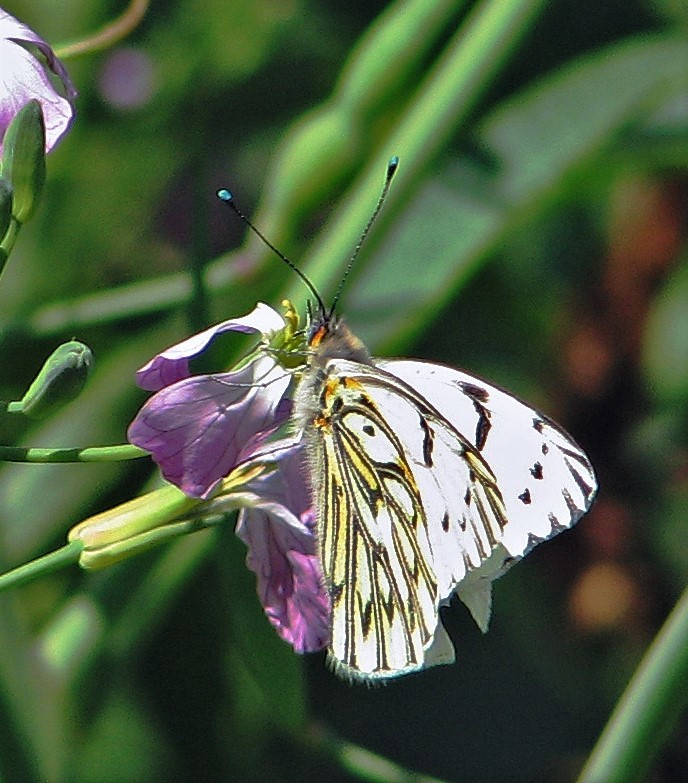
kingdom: Animalia
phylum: Arthropoda
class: Insecta
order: Lepidoptera
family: Pieridae
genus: Tatochila
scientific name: Tatochila autodice
